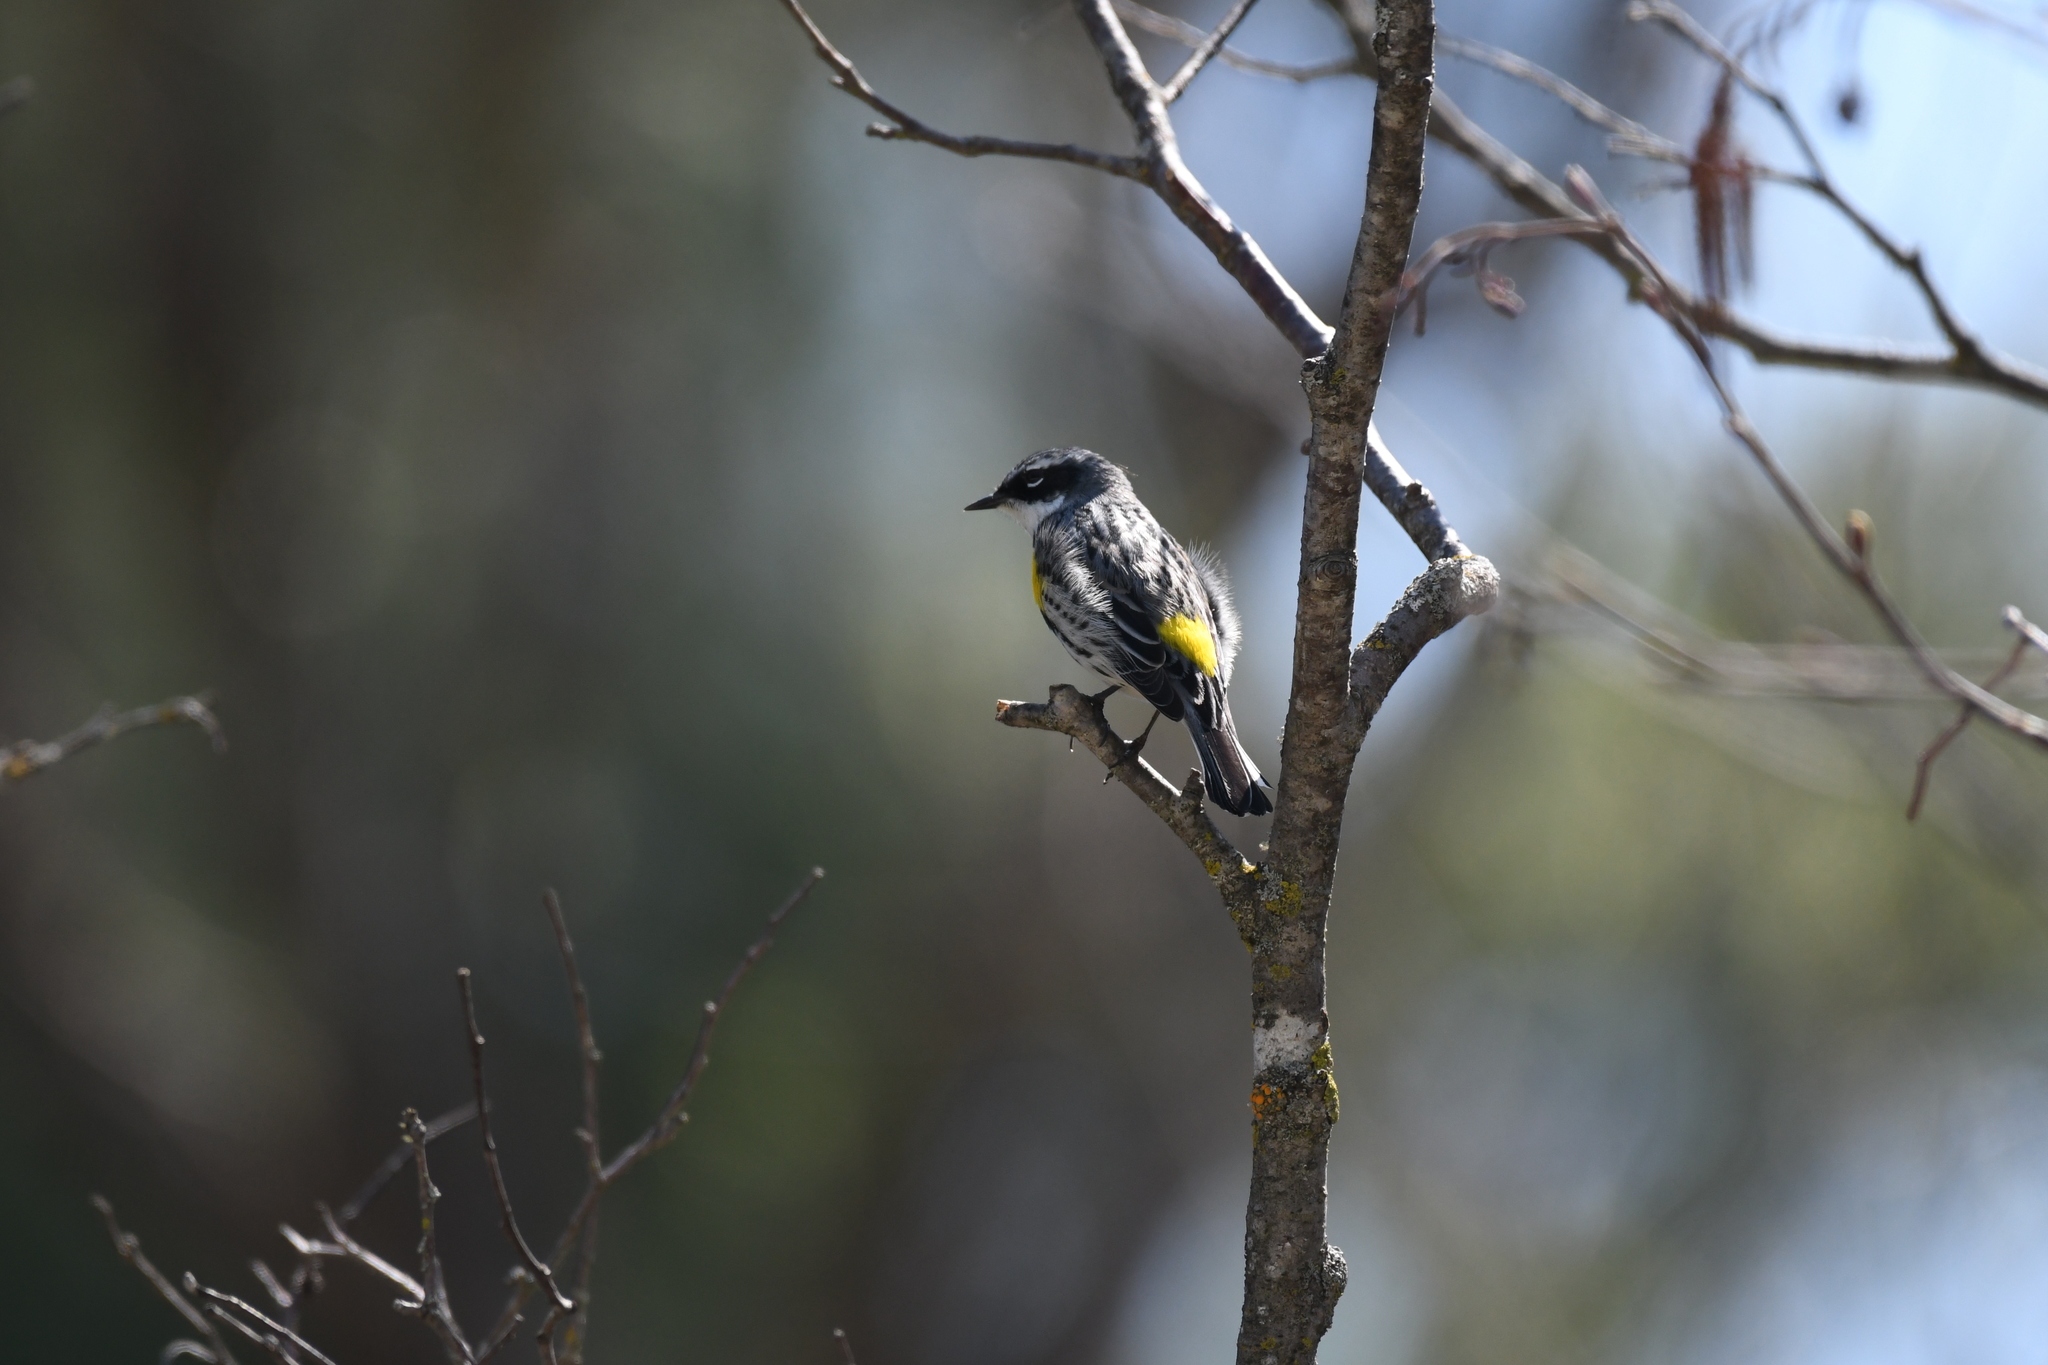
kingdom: Animalia
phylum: Chordata
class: Aves
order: Passeriformes
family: Parulidae
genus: Setophaga
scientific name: Setophaga coronata
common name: Myrtle warbler
